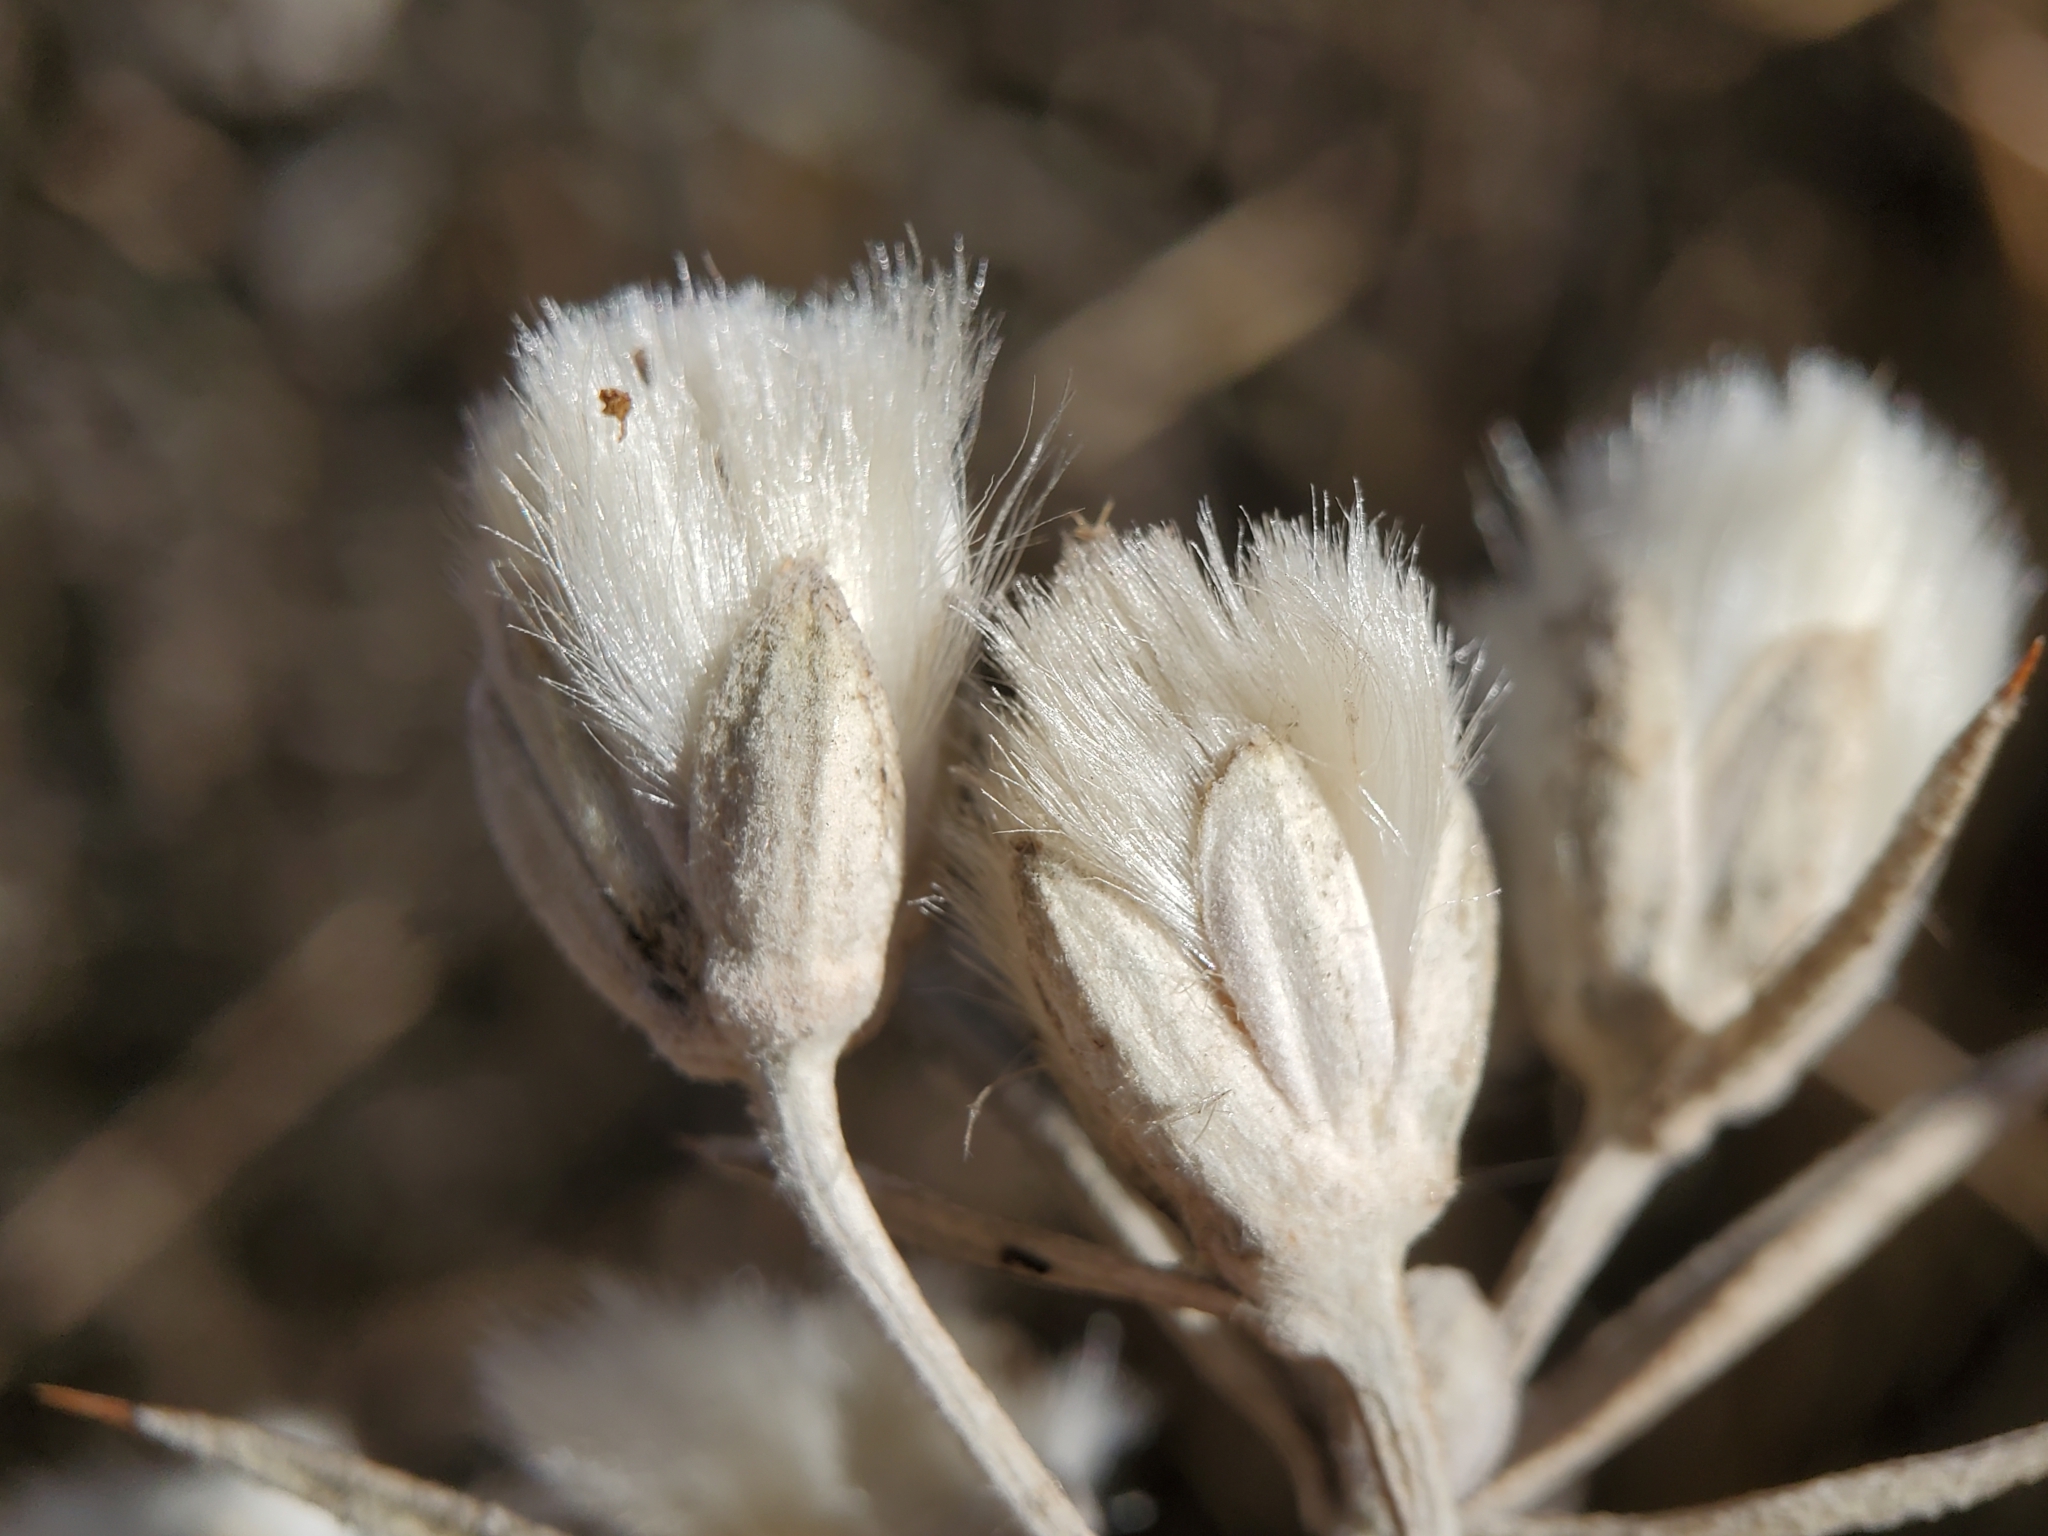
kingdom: Plantae
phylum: Tracheophyta
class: Magnoliopsida
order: Asterales
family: Asteraceae
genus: Tetradymia
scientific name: Tetradymia comosa
